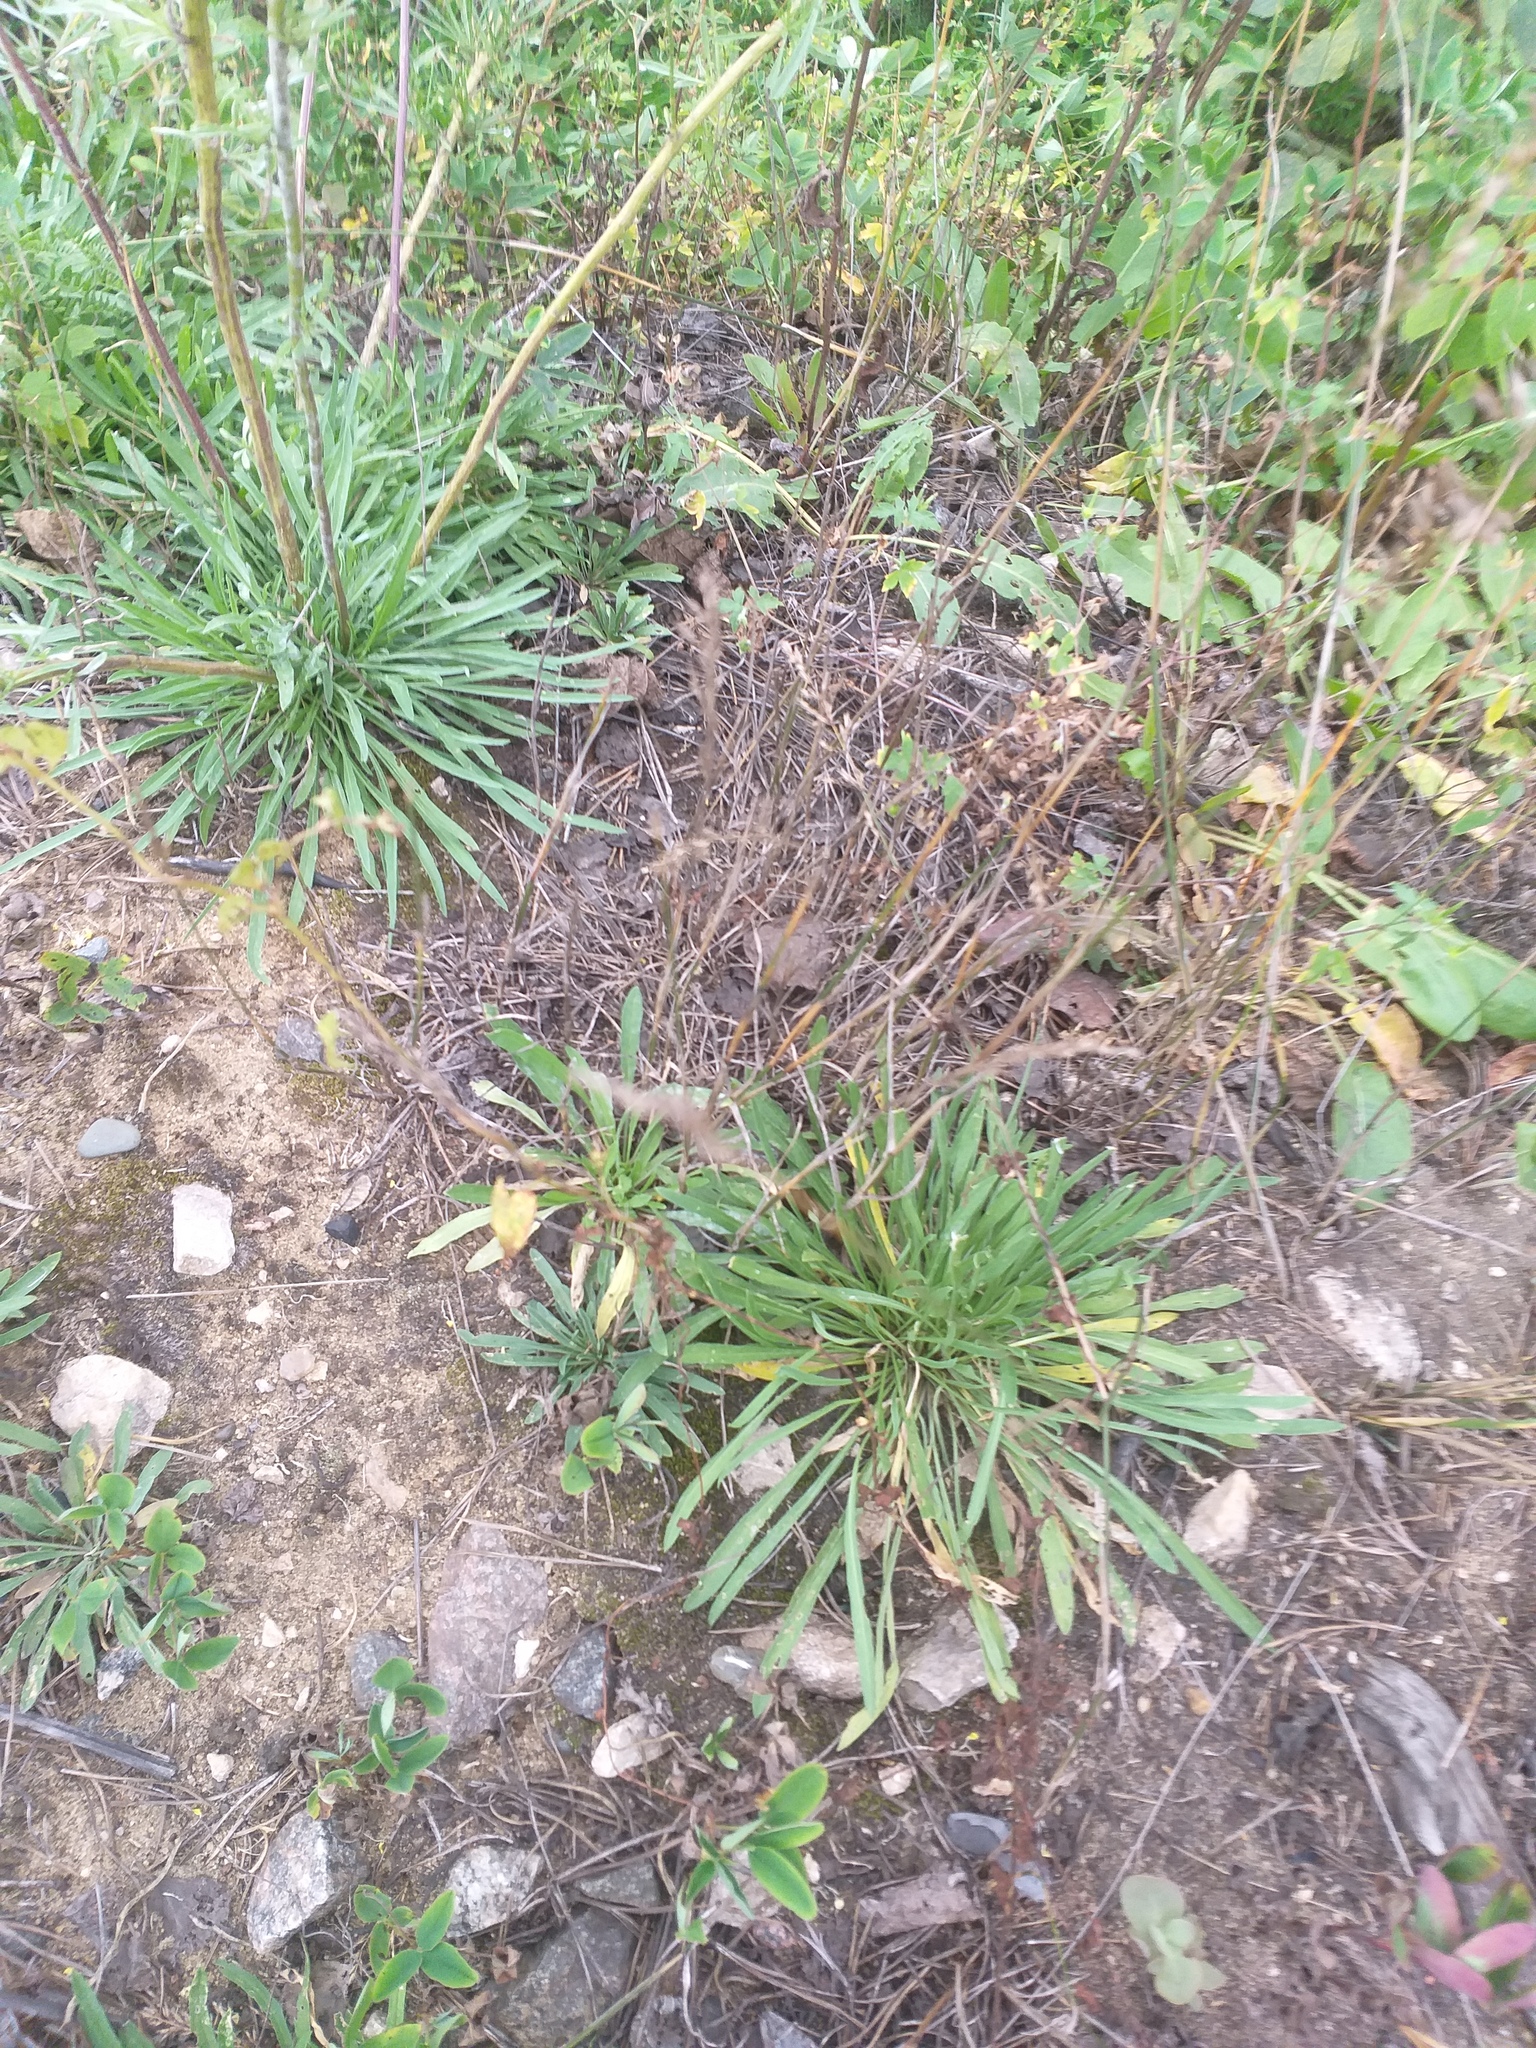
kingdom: Plantae
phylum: Tracheophyta
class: Magnoliopsida
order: Brassicales
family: Brassicaceae
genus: Erysimum
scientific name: Erysimum diffusum
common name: Diffuse wallflower
